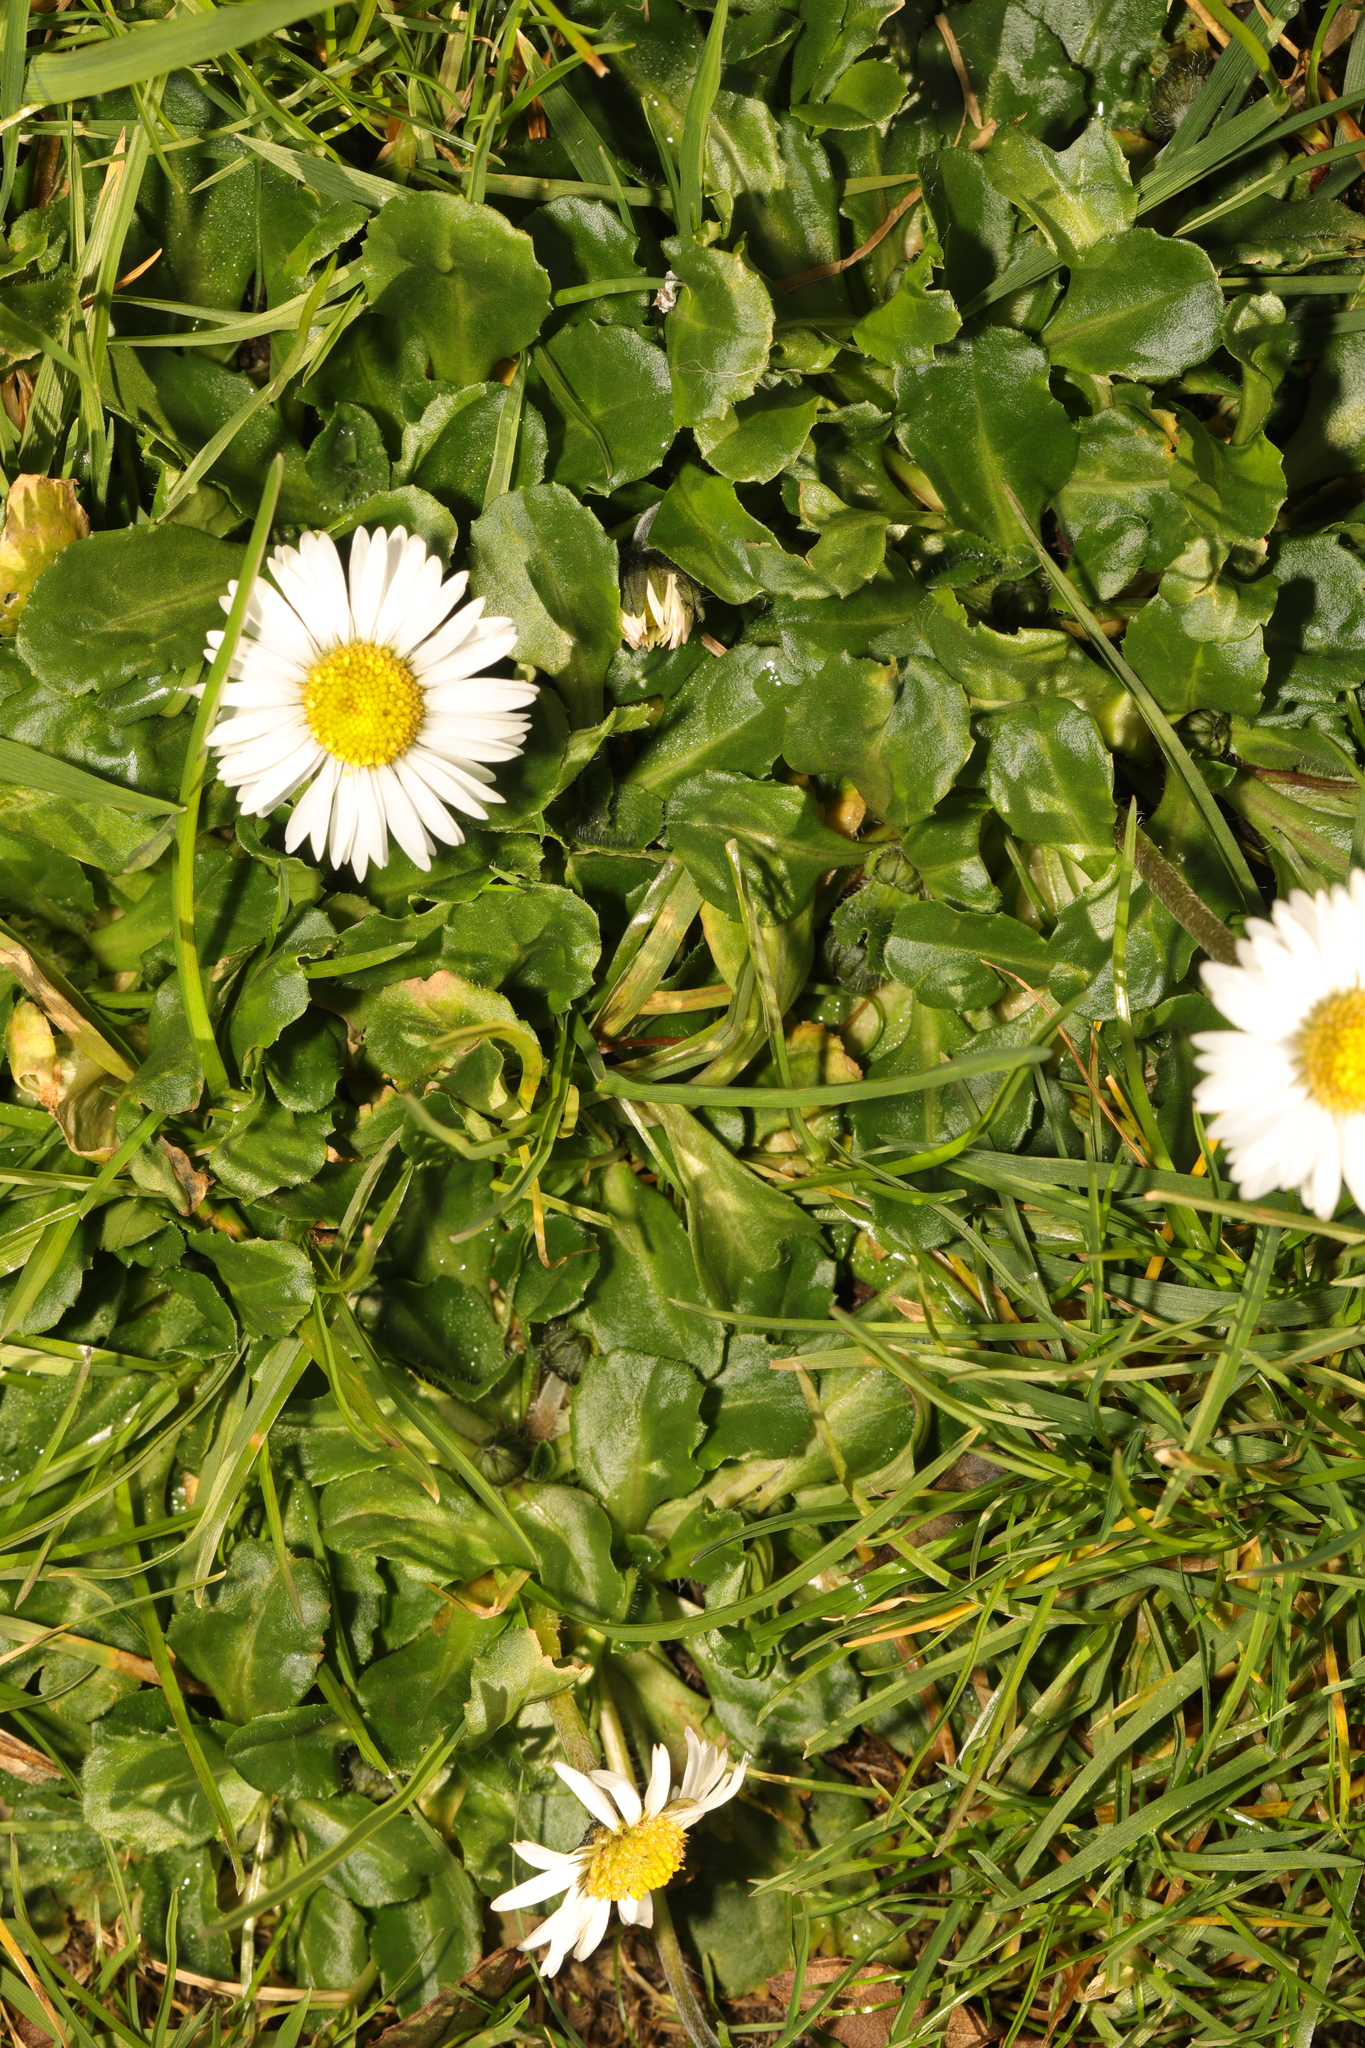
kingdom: Plantae
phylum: Tracheophyta
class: Magnoliopsida
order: Asterales
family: Asteraceae
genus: Bellis
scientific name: Bellis perennis
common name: Lawndaisy
